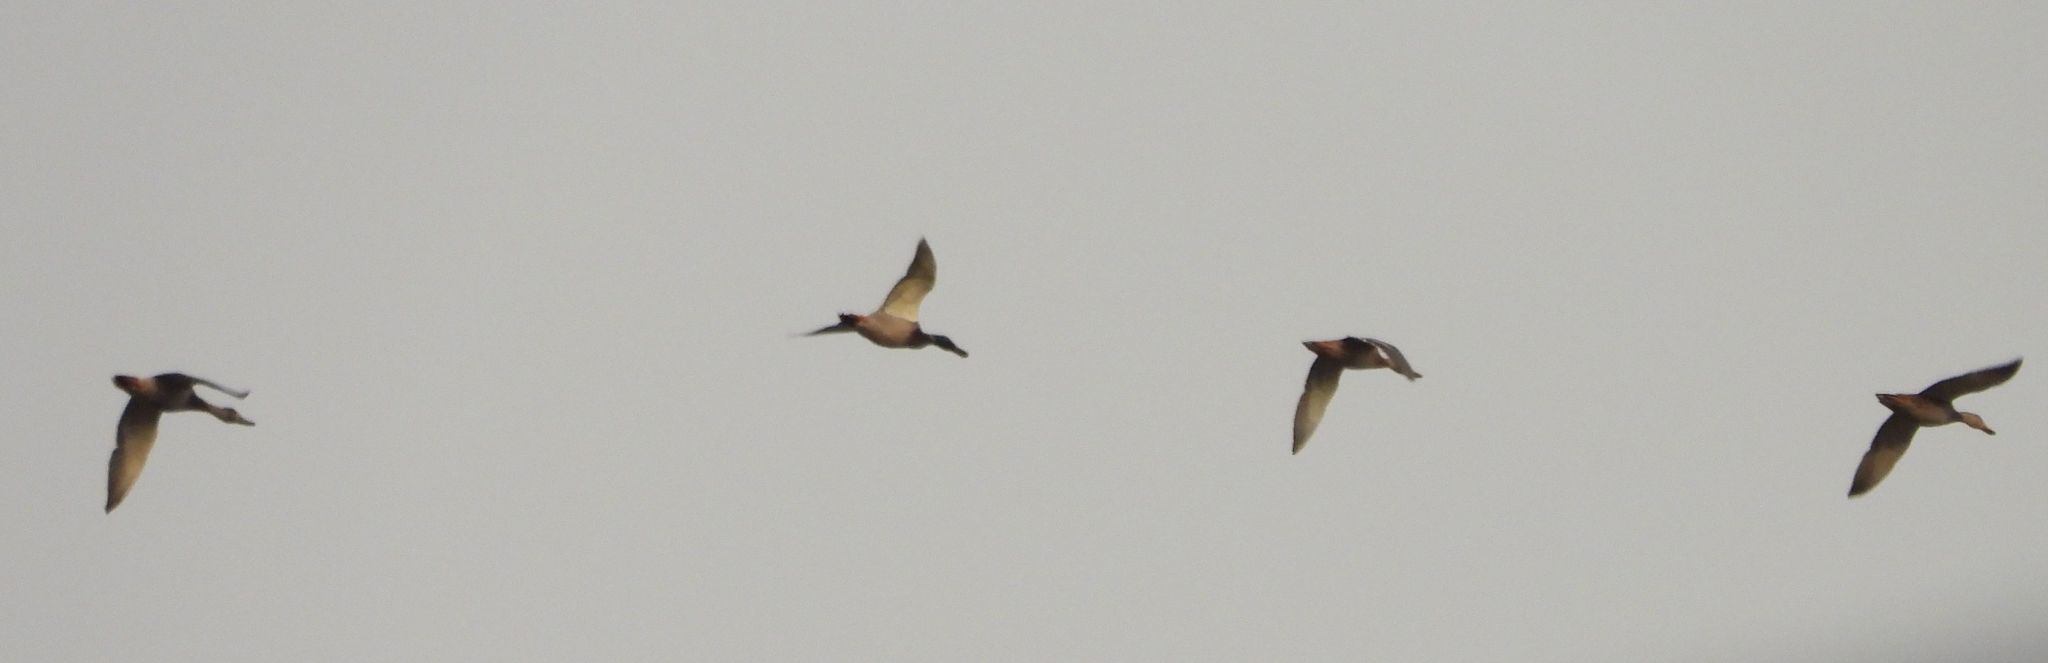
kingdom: Animalia
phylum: Chordata
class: Aves
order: Anseriformes
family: Anatidae
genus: Anas
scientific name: Anas platyrhynchos
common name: Mallard
